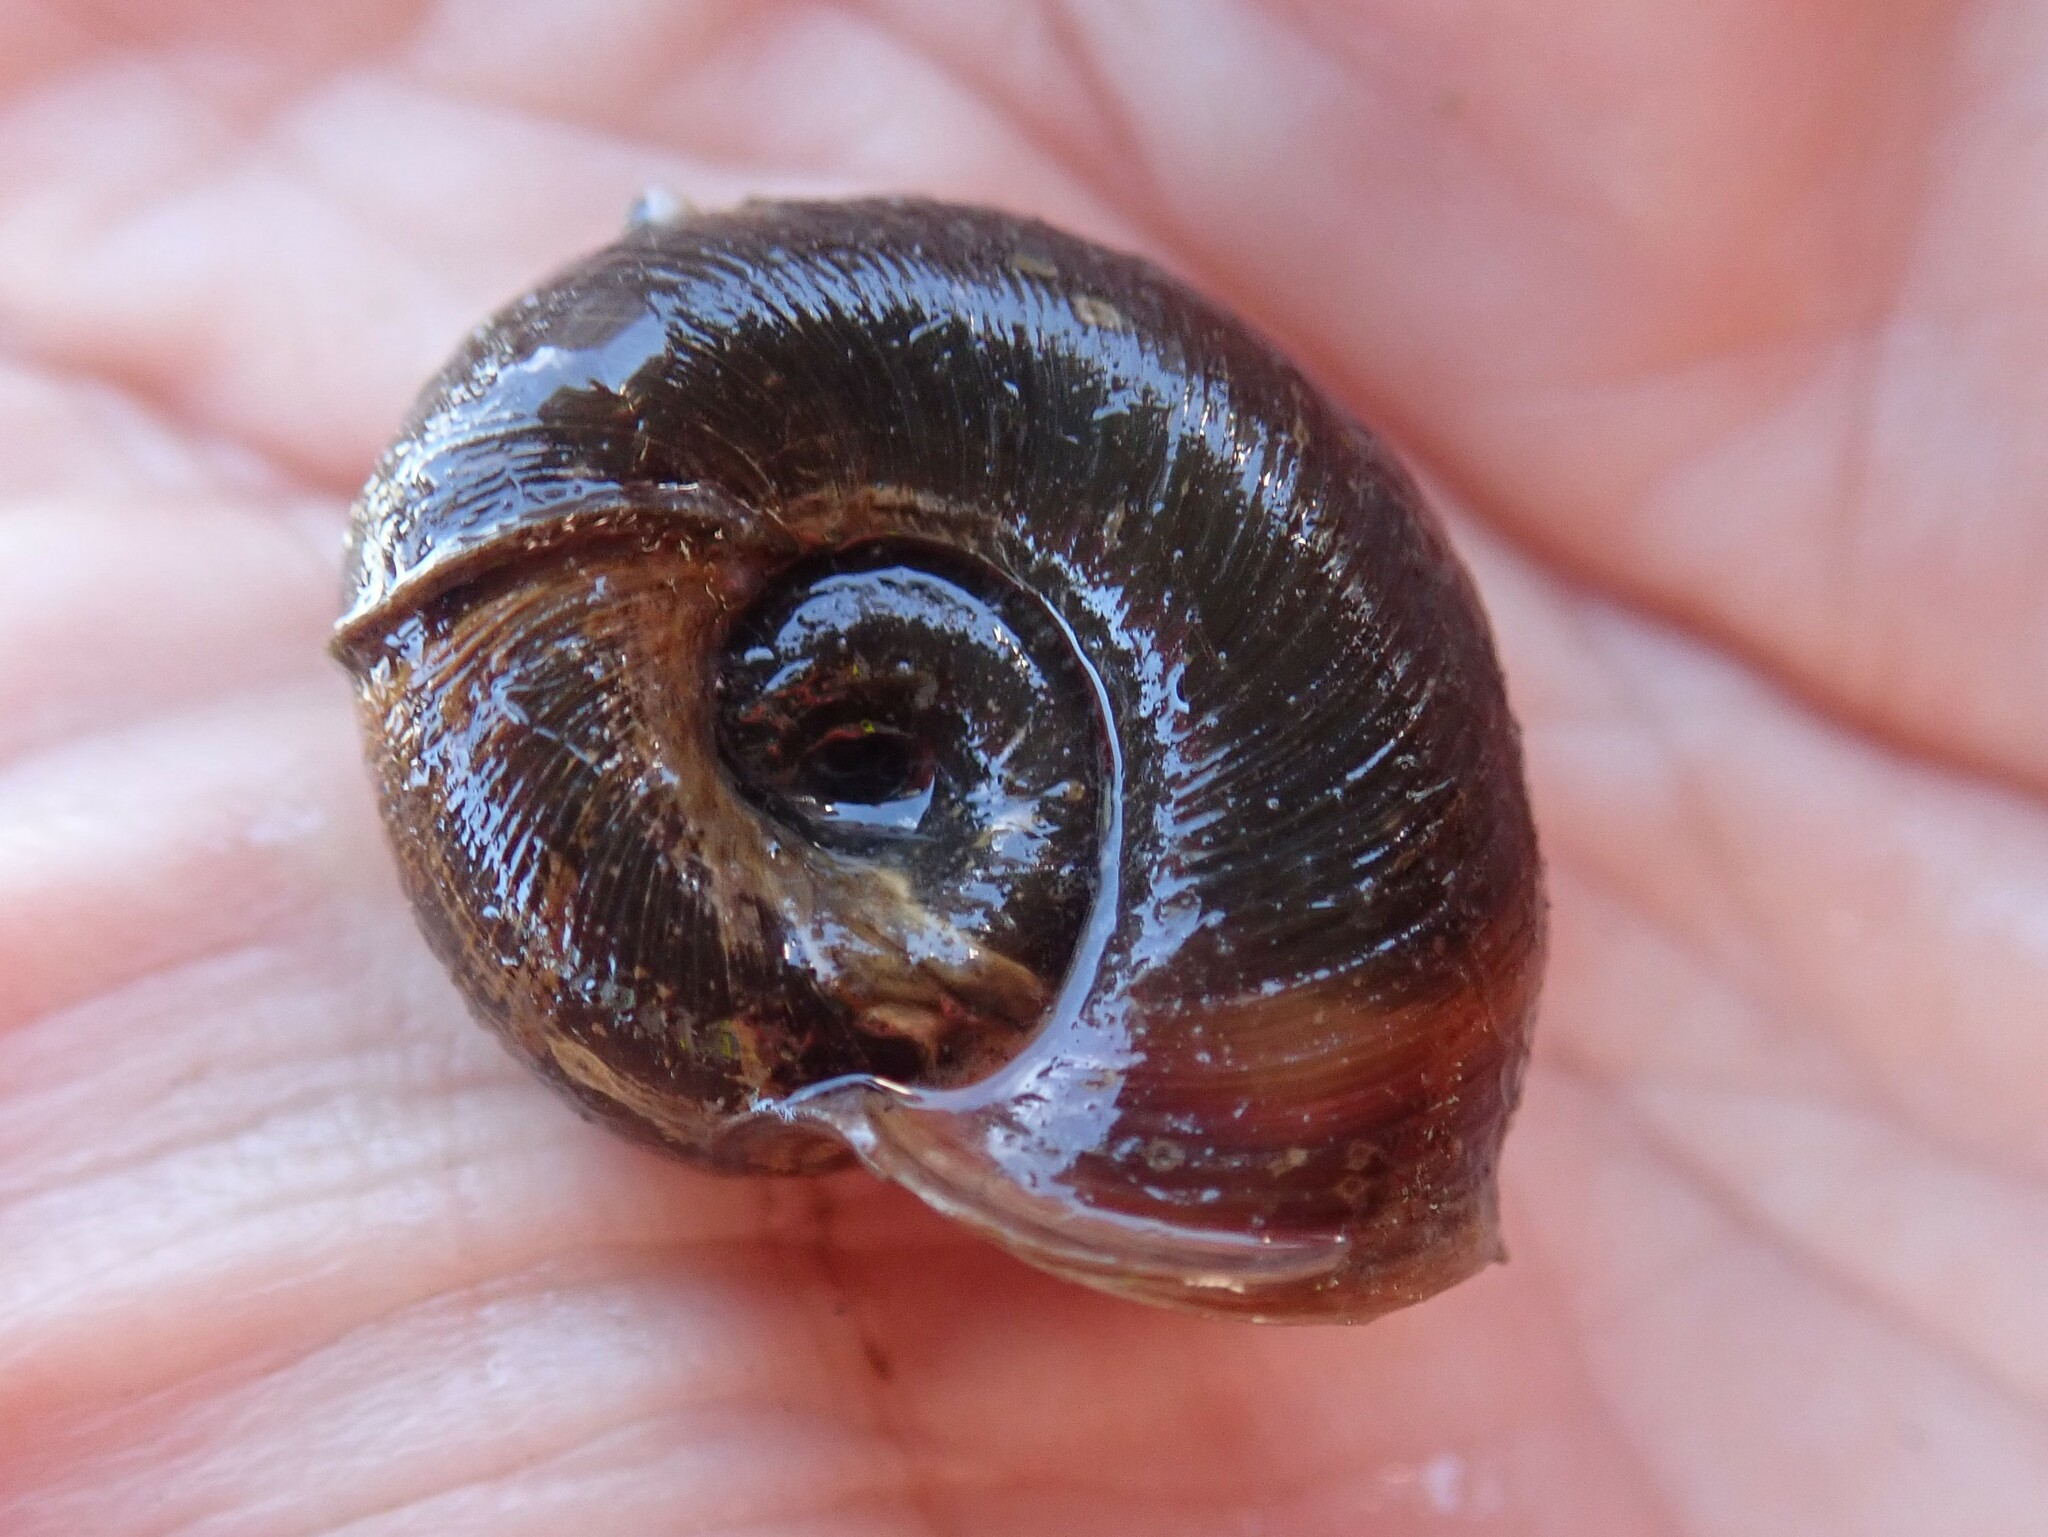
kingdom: Animalia
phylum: Mollusca
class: Gastropoda
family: Planorbidae
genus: Planorbella
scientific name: Planorbella trivolvis
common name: Marsh rams-horn
